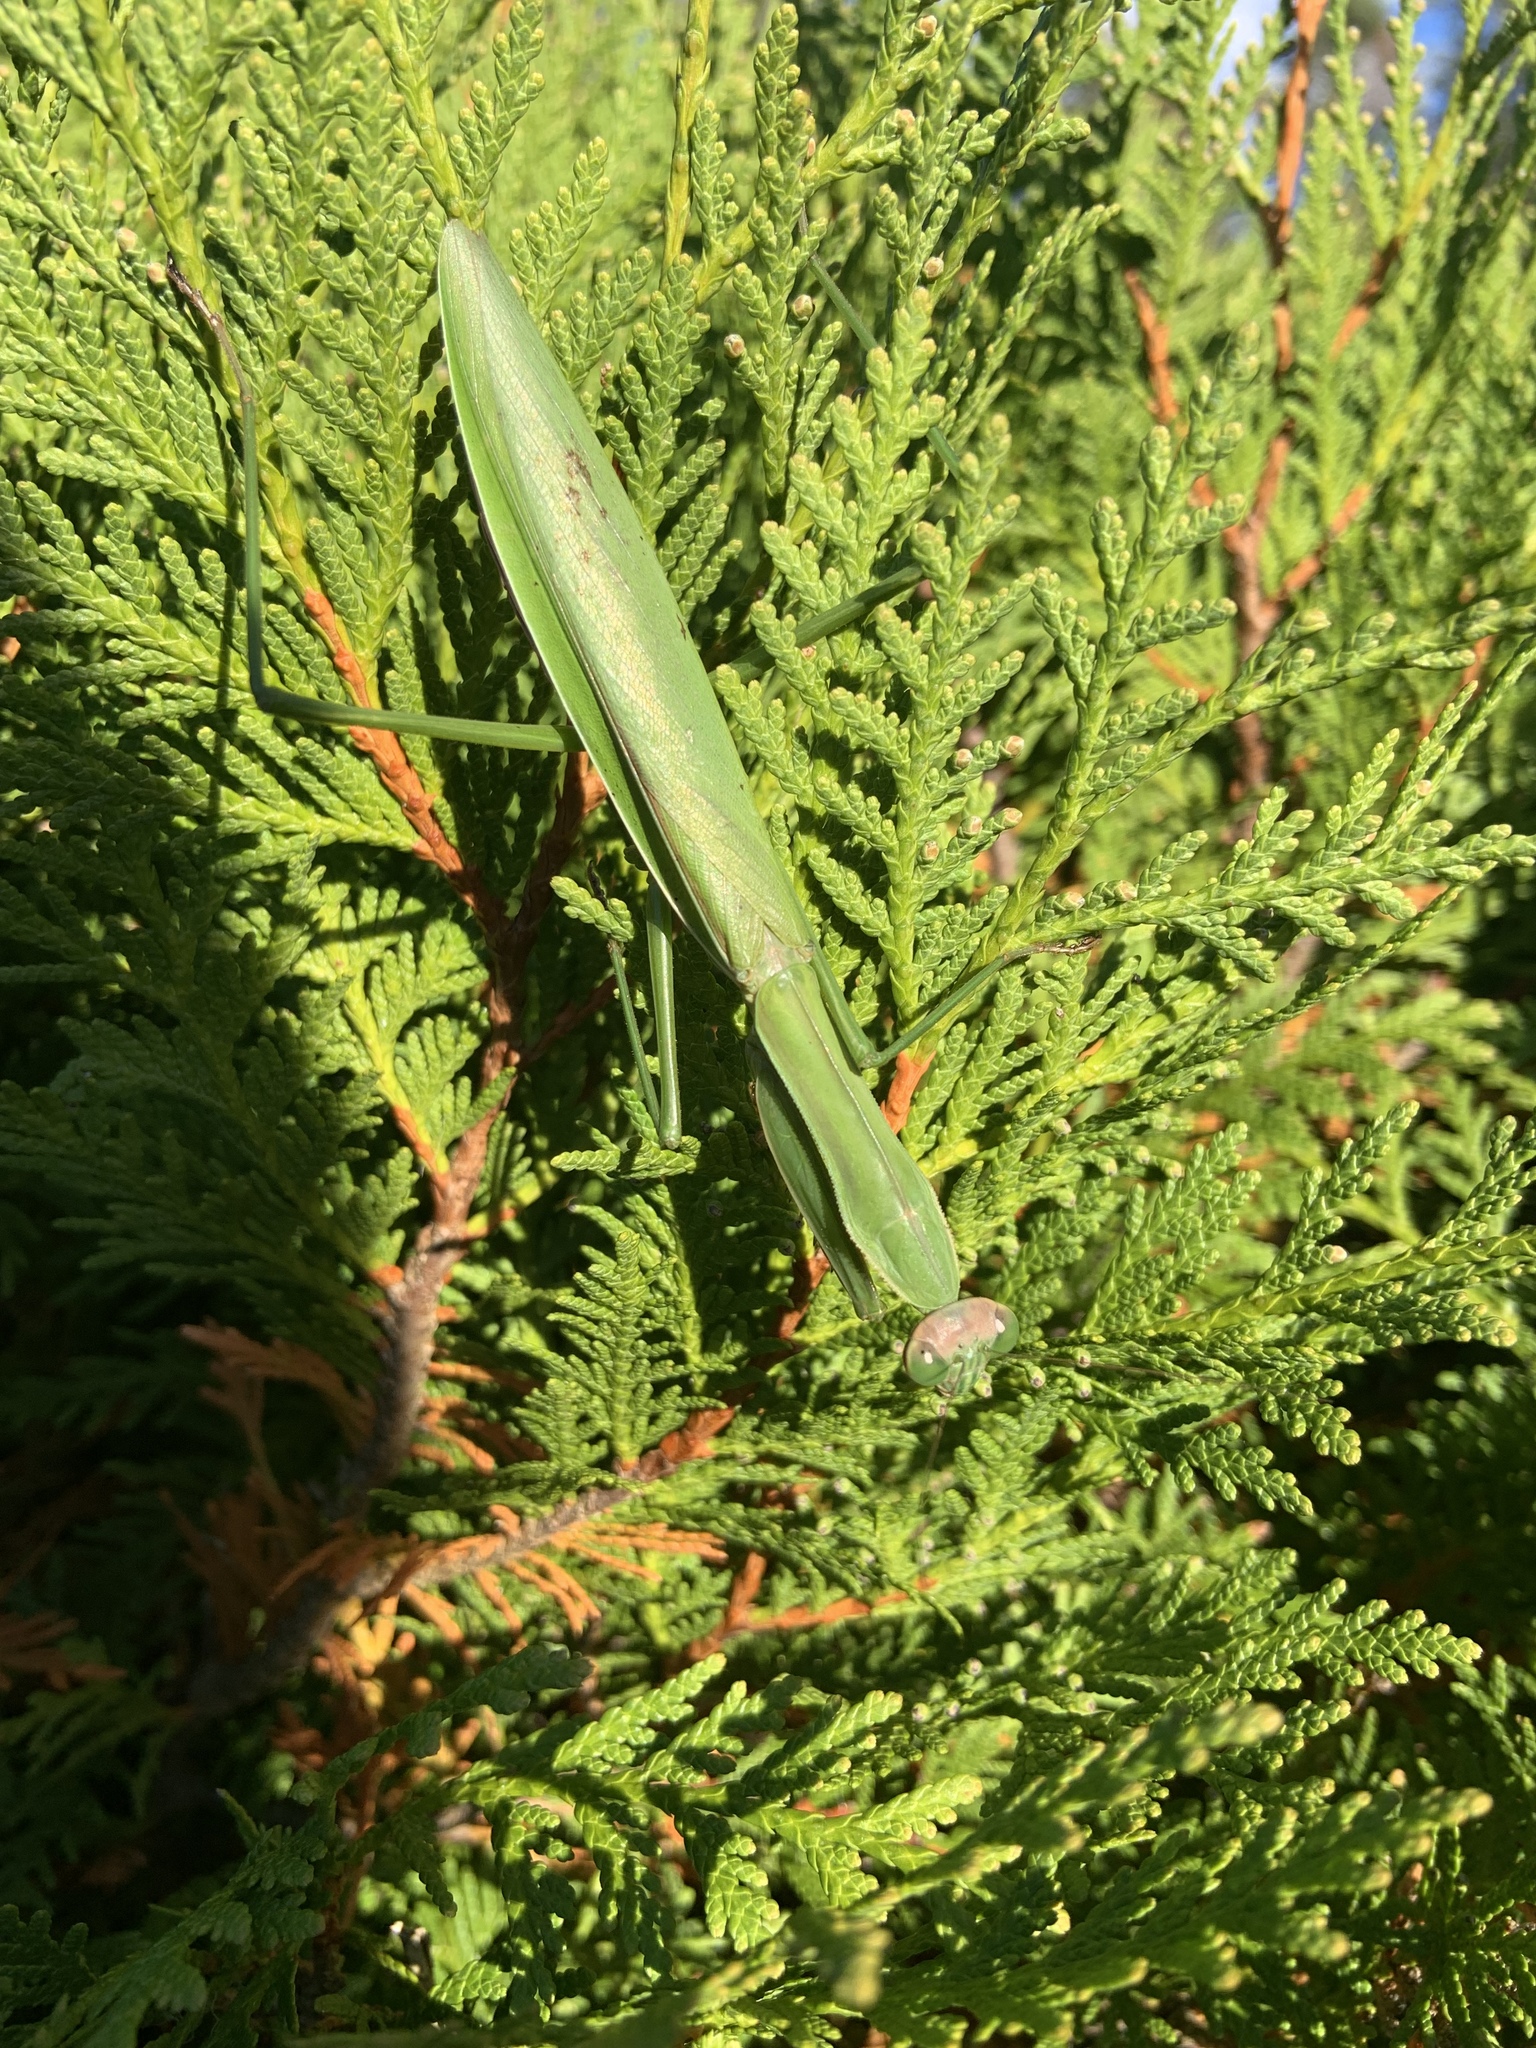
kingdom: Animalia
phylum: Arthropoda
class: Insecta
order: Mantodea
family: Mantidae
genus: Tenodera
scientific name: Tenodera sinensis
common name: Chinese mantis
